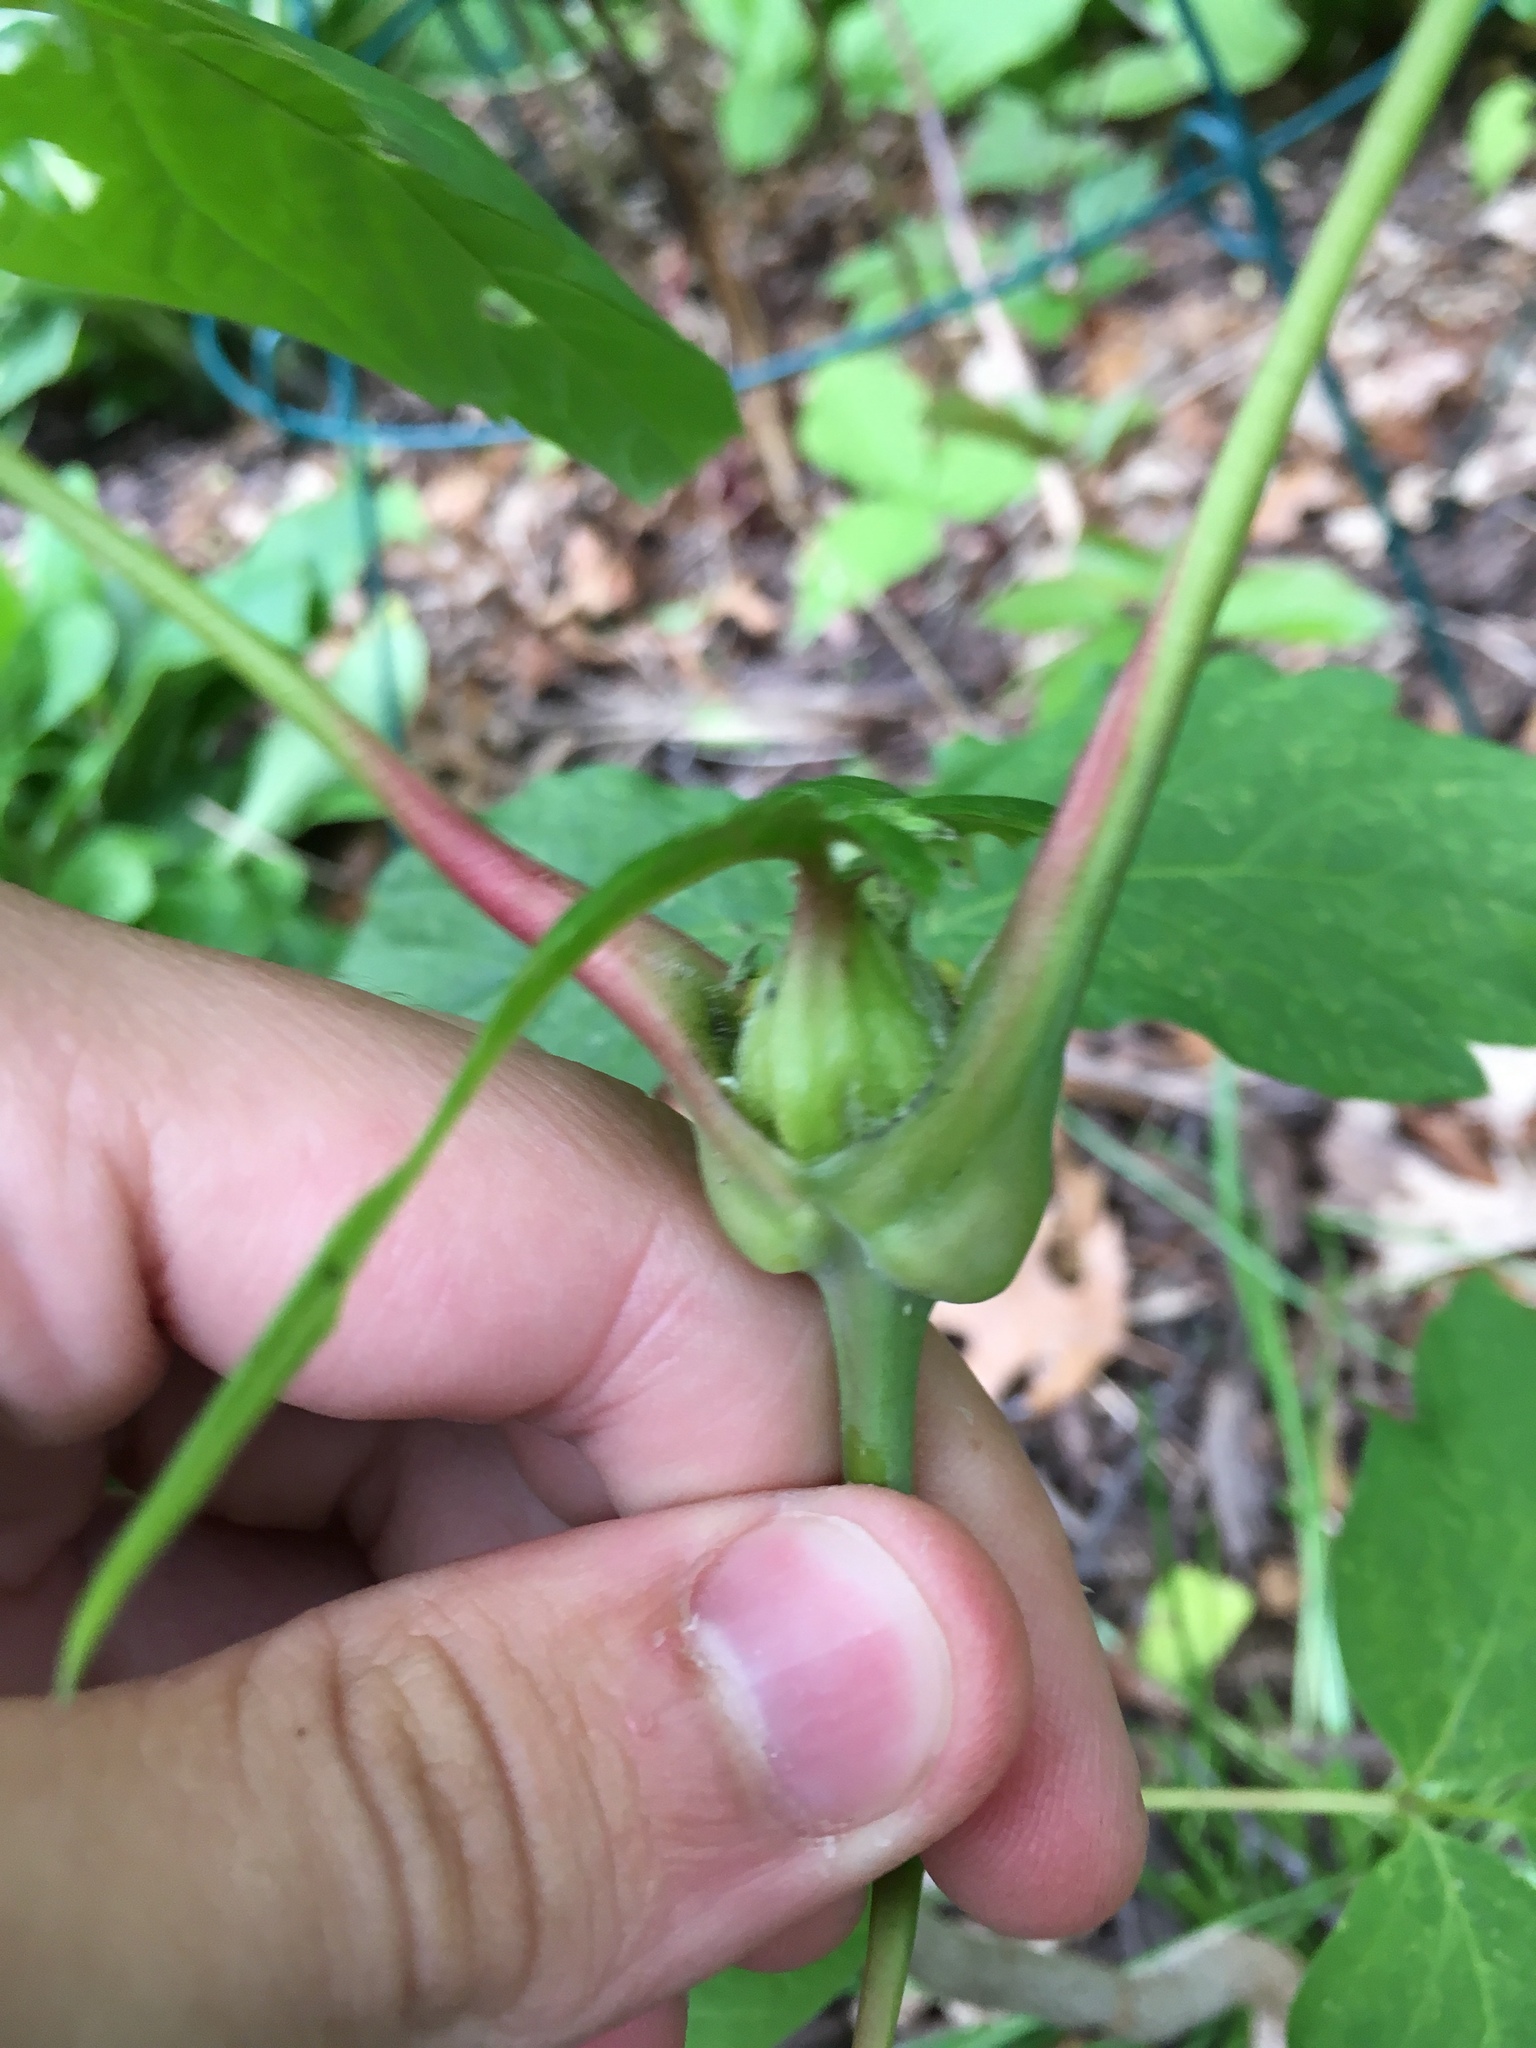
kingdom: Animalia
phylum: Arthropoda
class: Insecta
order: Diptera
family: Cecidomyiidae
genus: Contarinia
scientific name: Contarinia negundinis
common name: Boxelder budgall midge
